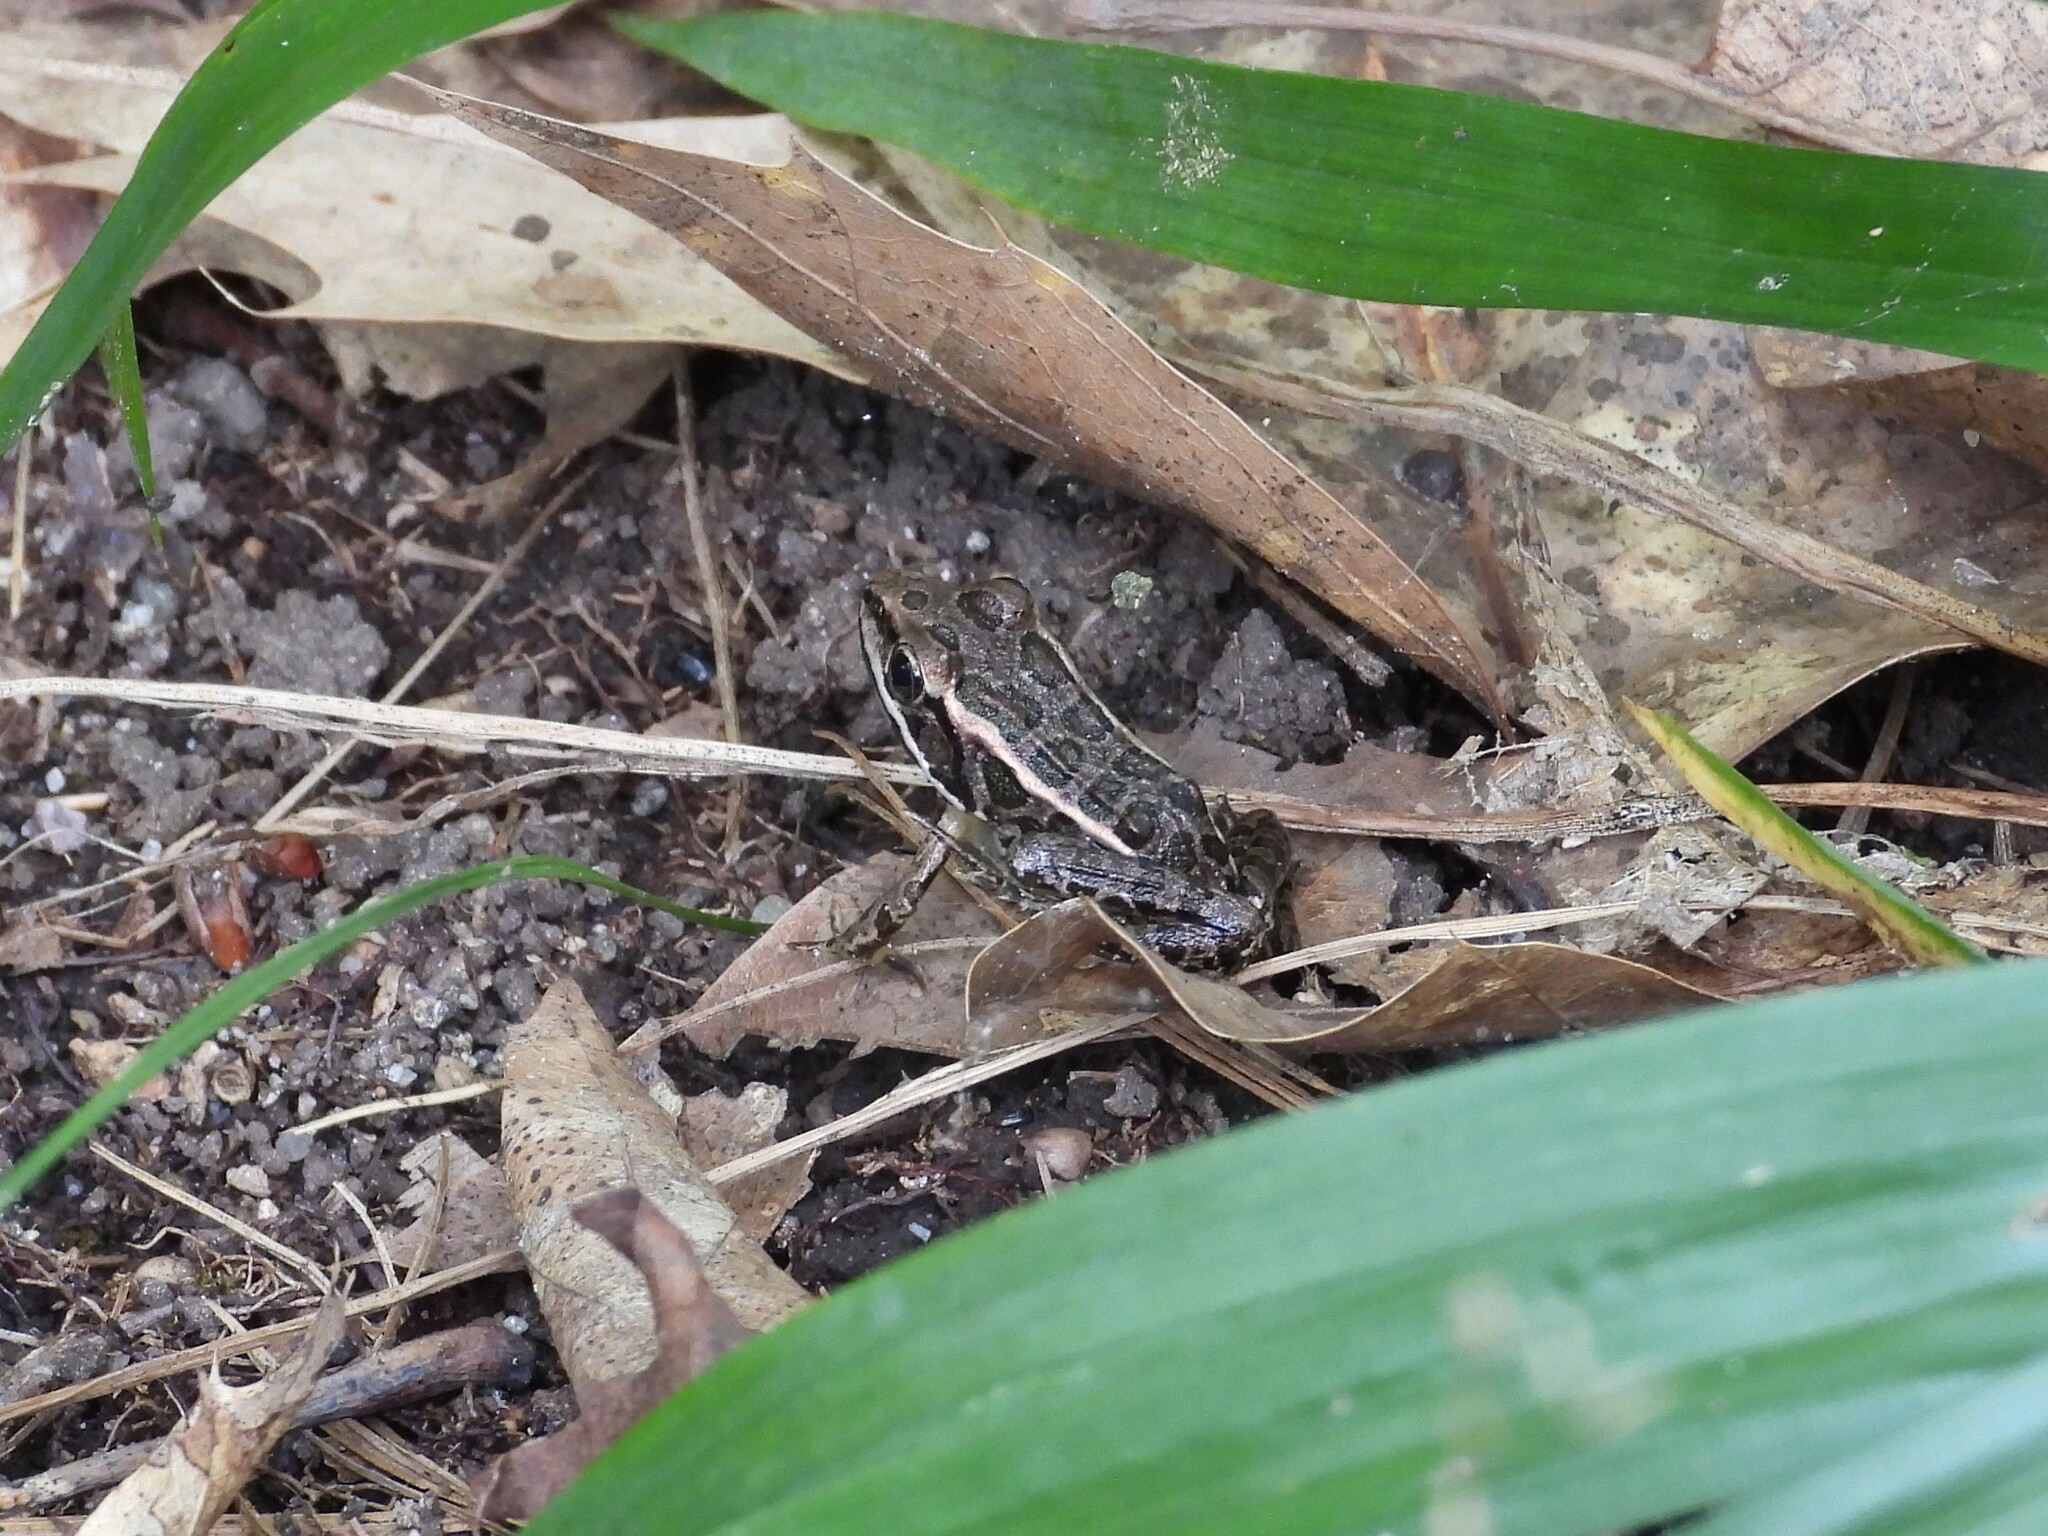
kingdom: Animalia
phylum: Chordata
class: Amphibia
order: Anura
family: Ranidae
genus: Lithobates
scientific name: Lithobates palustris
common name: Pickerel frog
